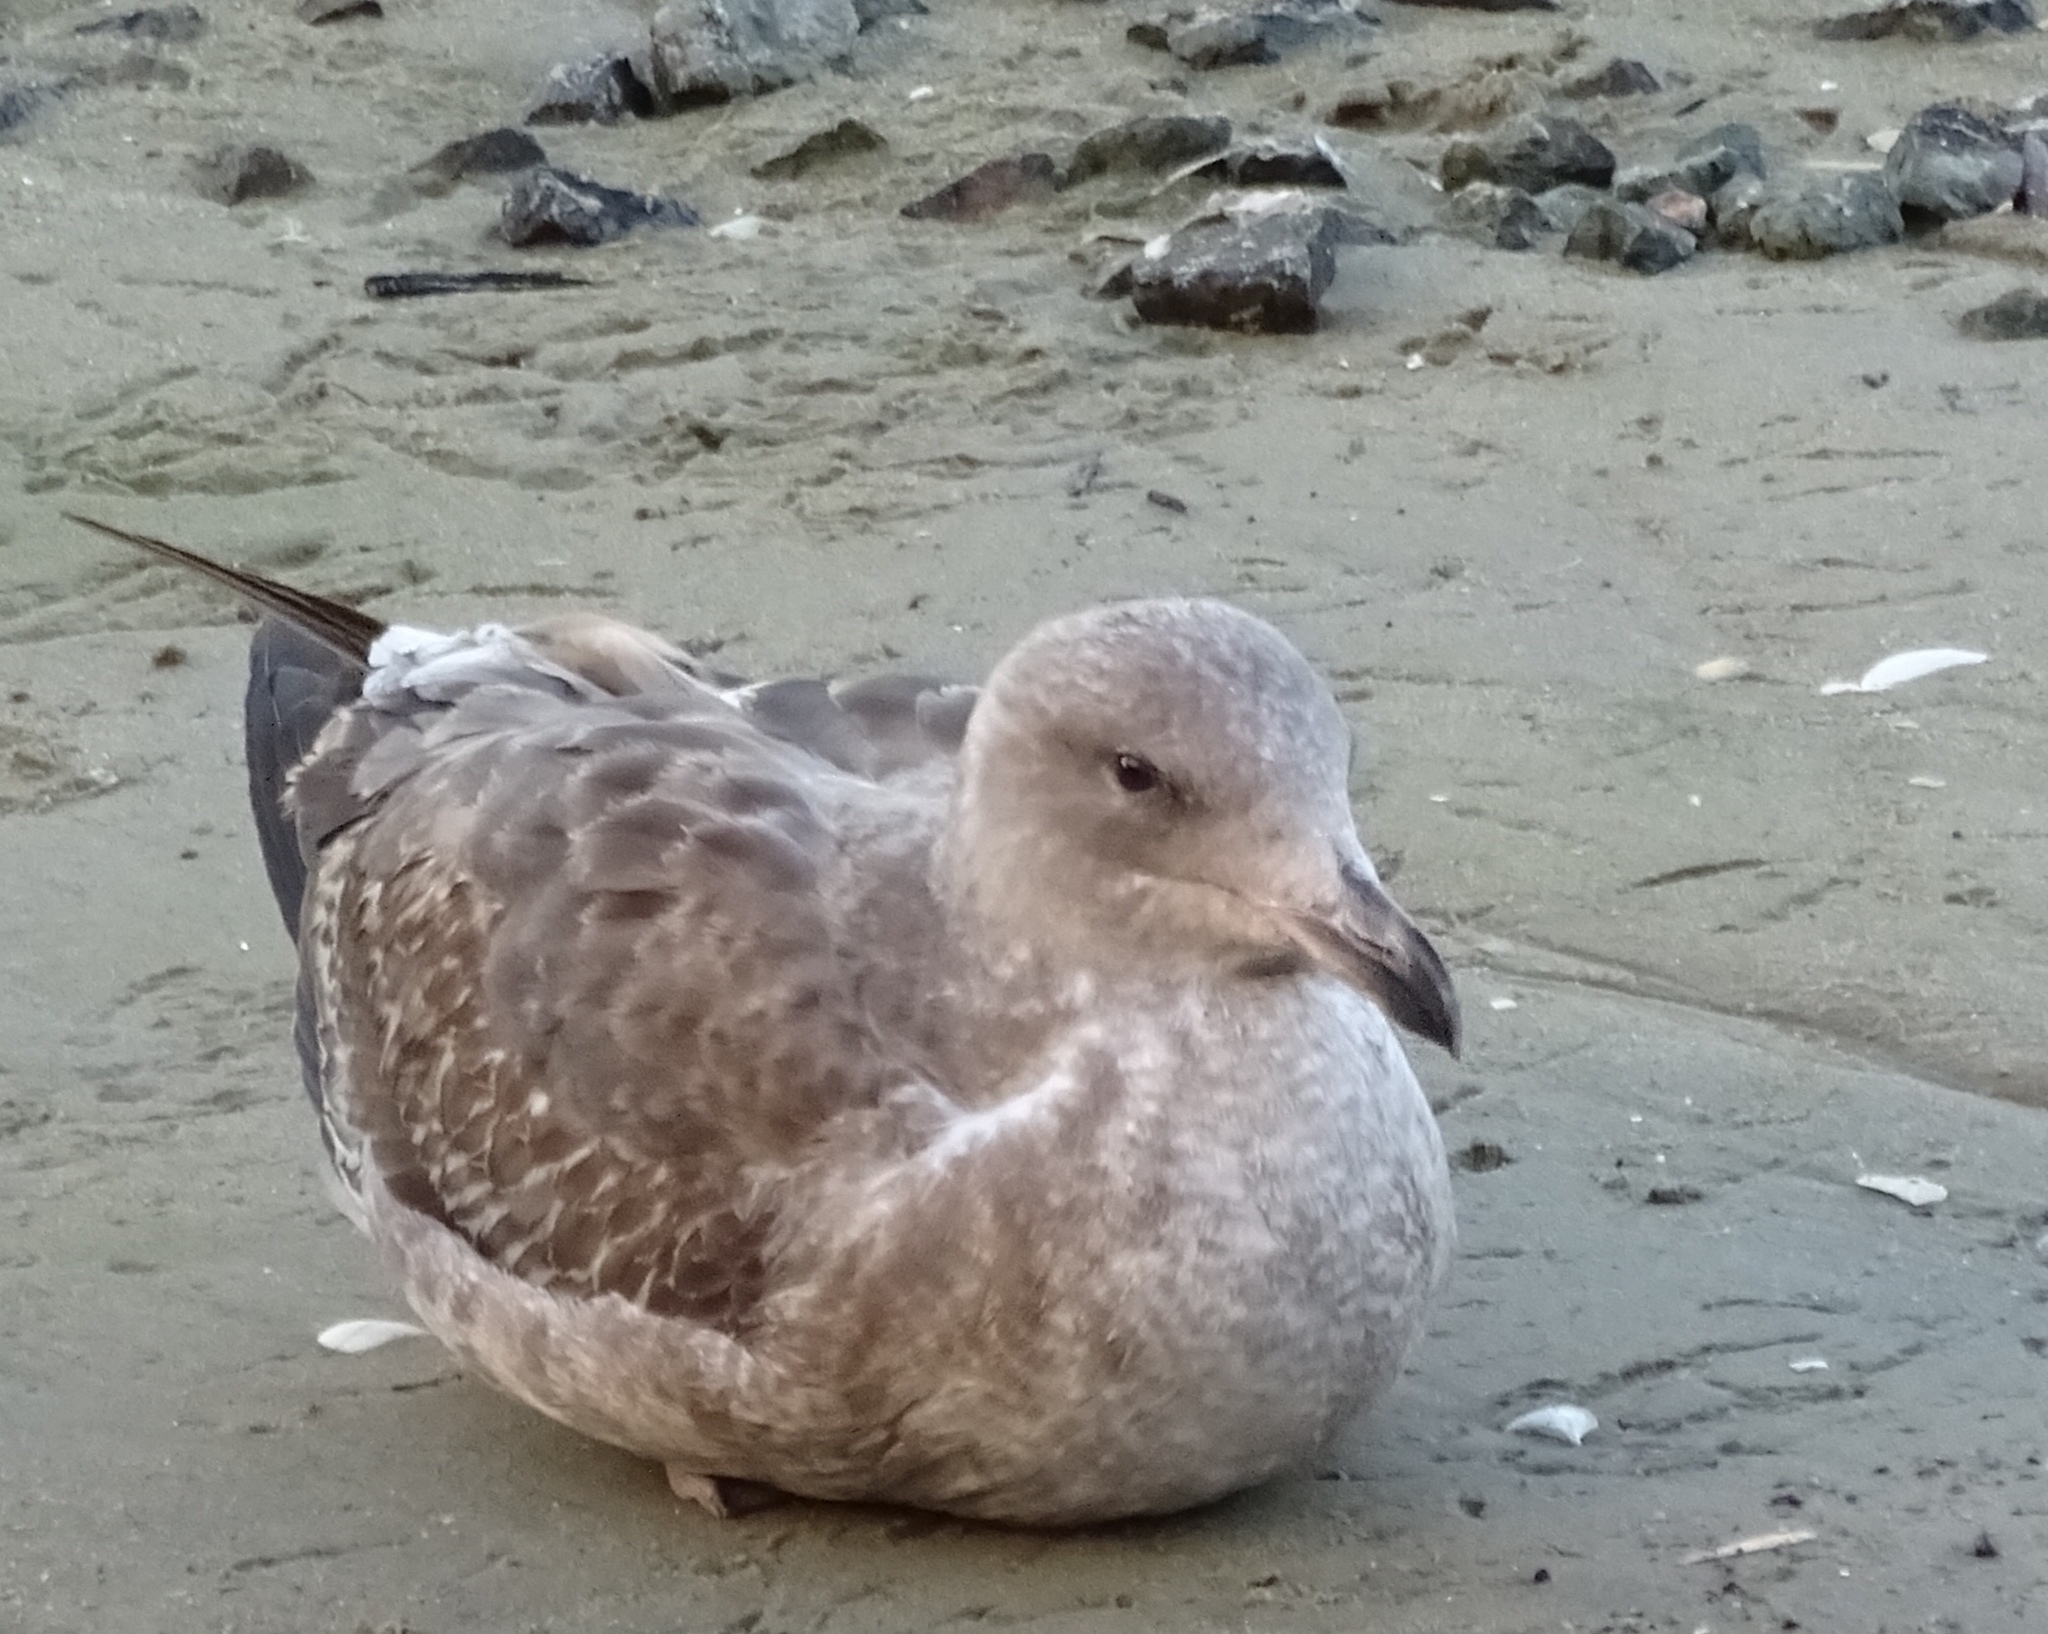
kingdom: Animalia
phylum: Chordata
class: Aves
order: Charadriiformes
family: Laridae
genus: Larus
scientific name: Larus occidentalis
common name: Western gull
